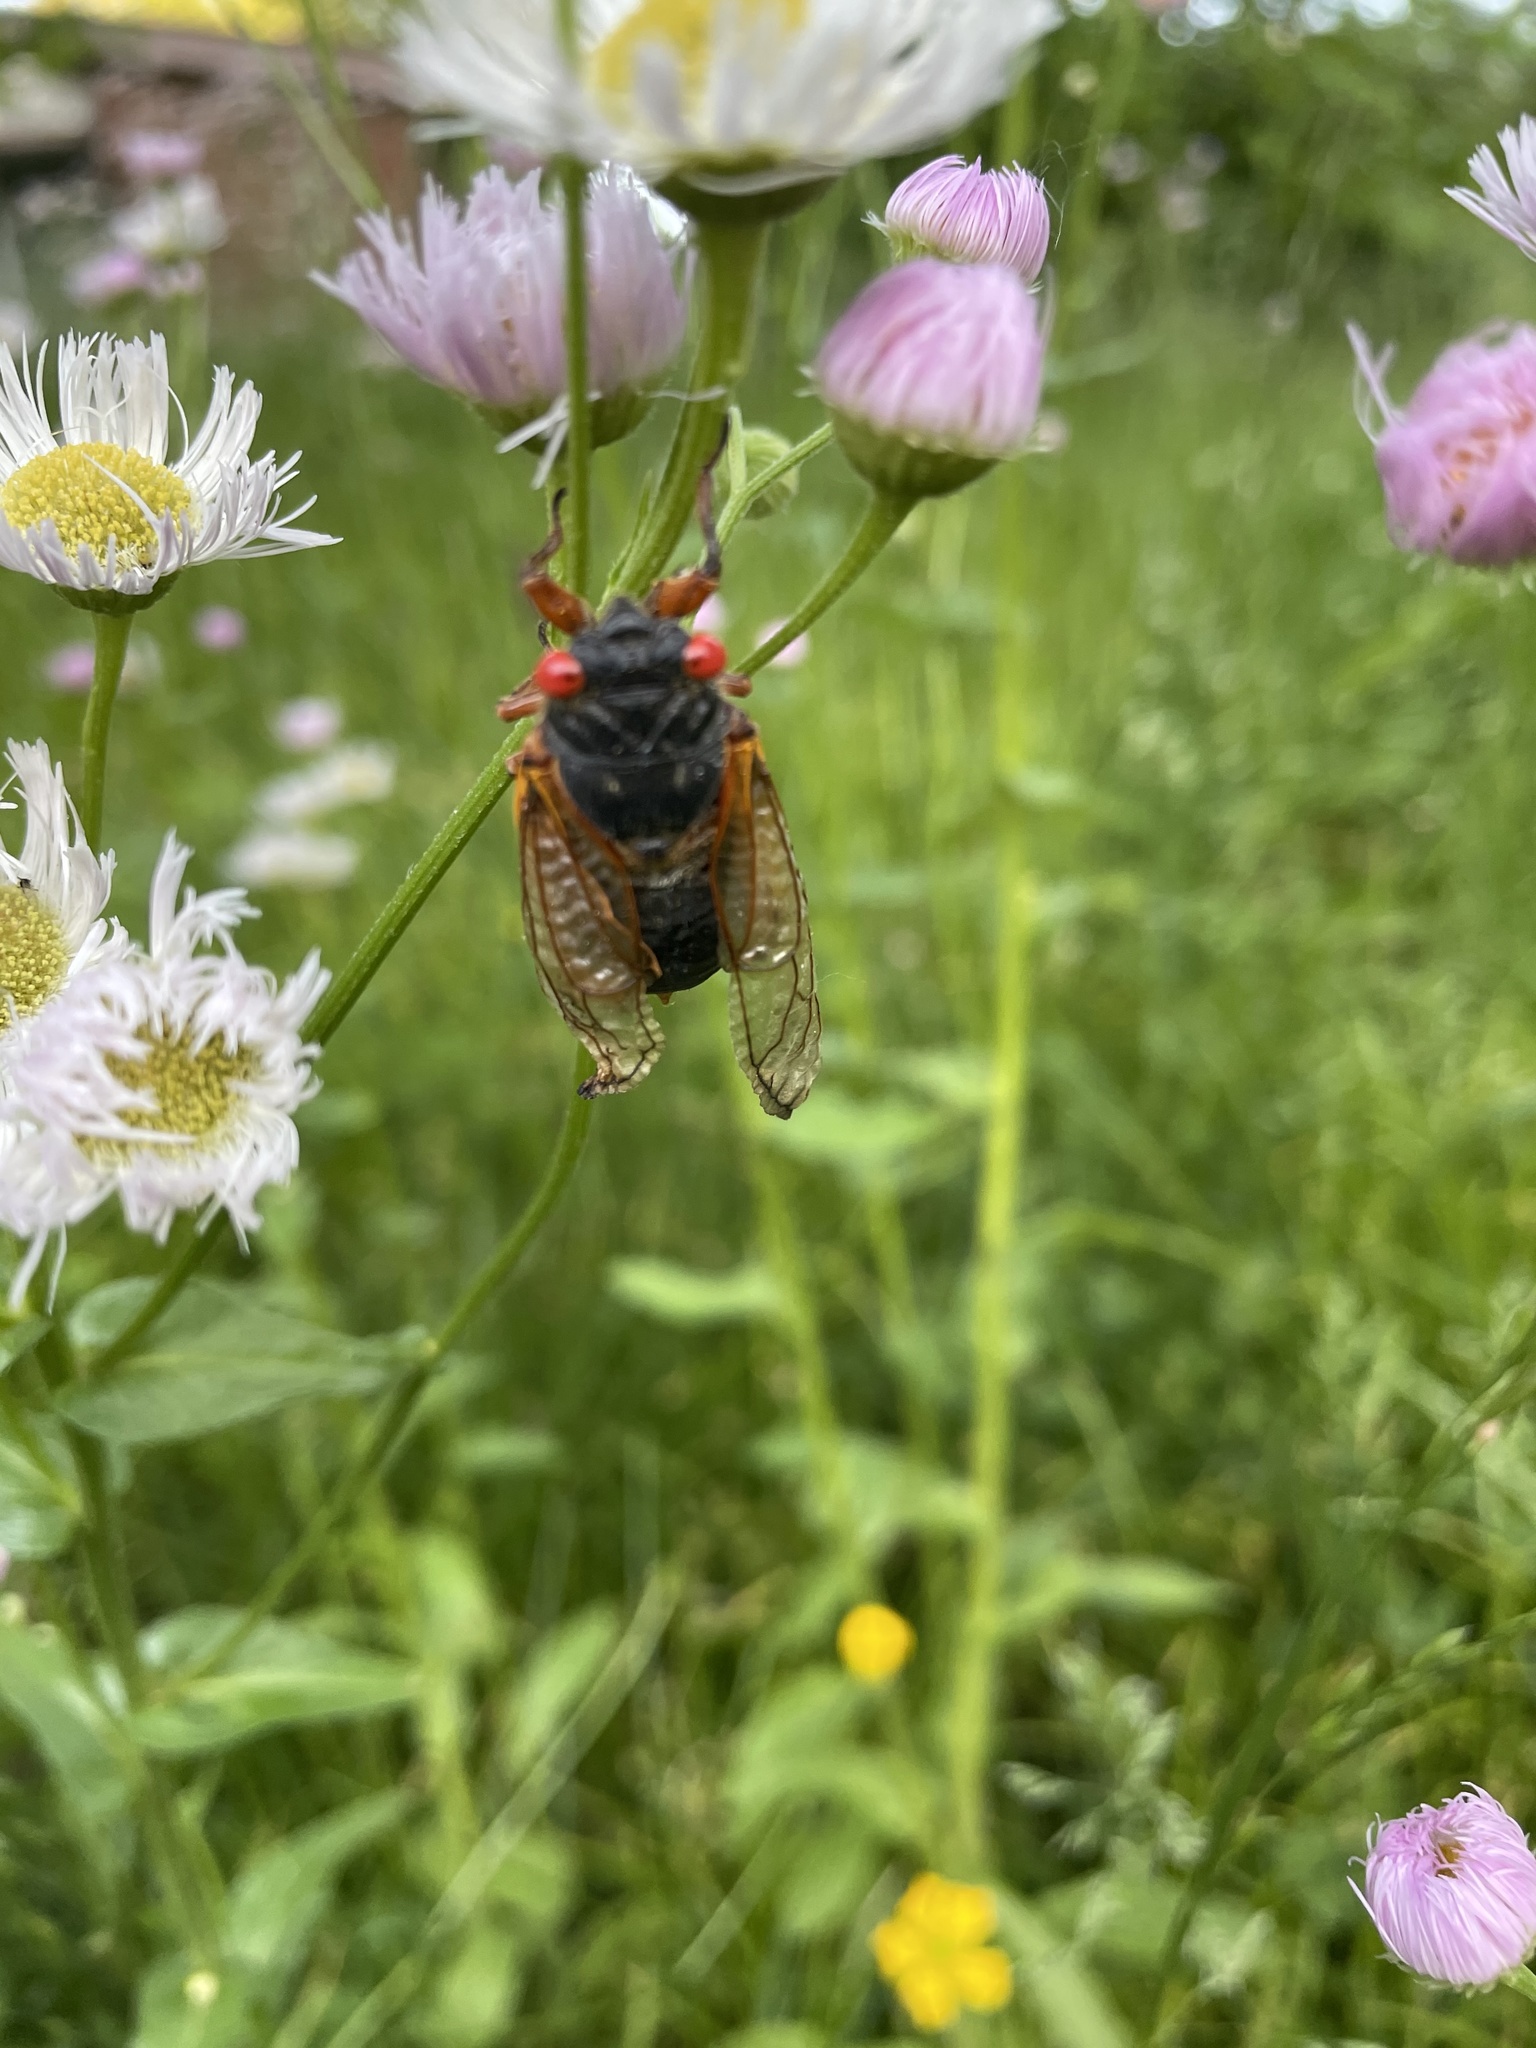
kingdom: Animalia
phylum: Arthropoda
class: Insecta
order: Hemiptera
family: Cicadidae
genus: Magicicada
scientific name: Magicicada
